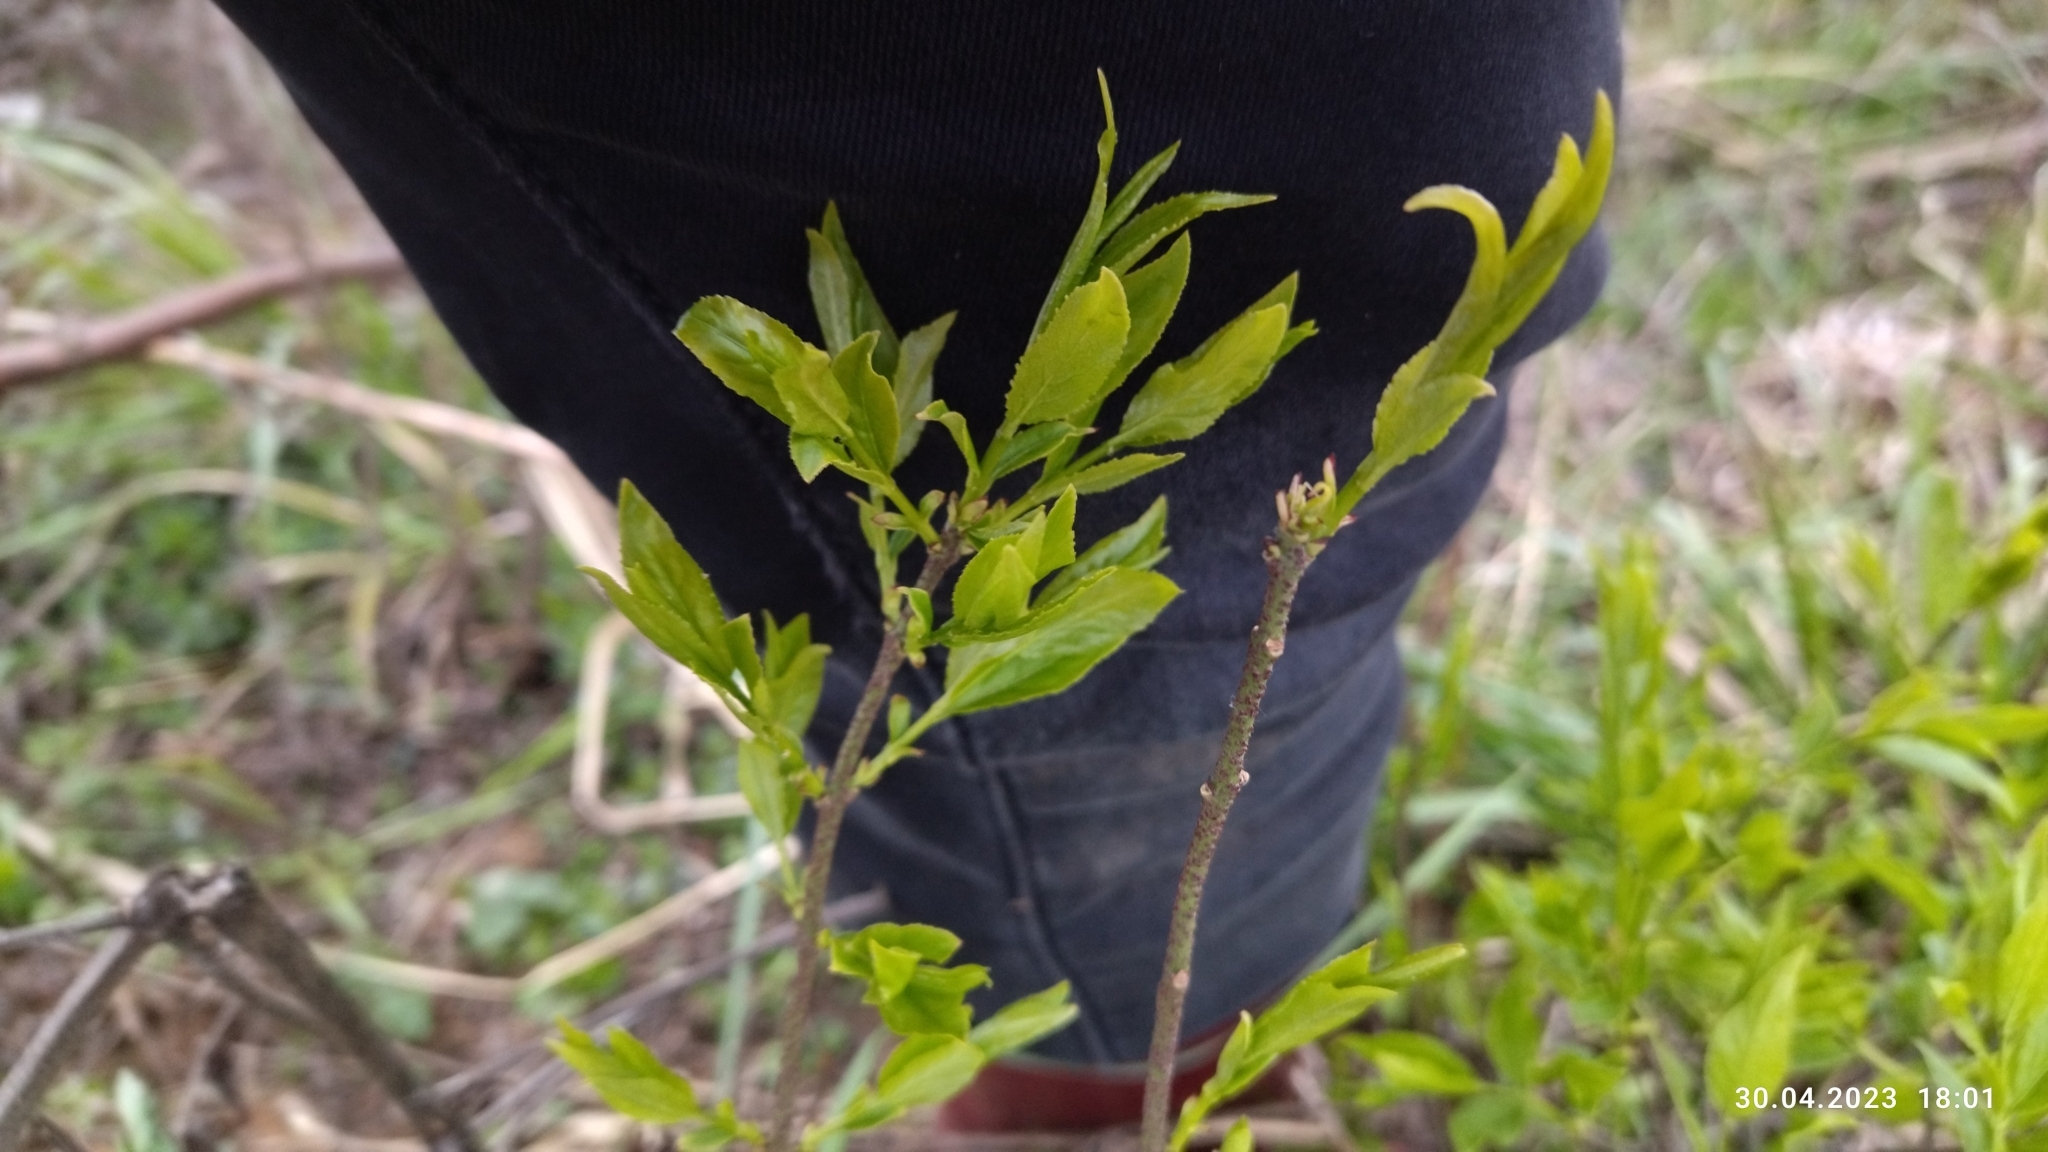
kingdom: Plantae
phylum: Tracheophyta
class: Magnoliopsida
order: Celastrales
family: Celastraceae
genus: Euonymus
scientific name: Euonymus verrucosus
